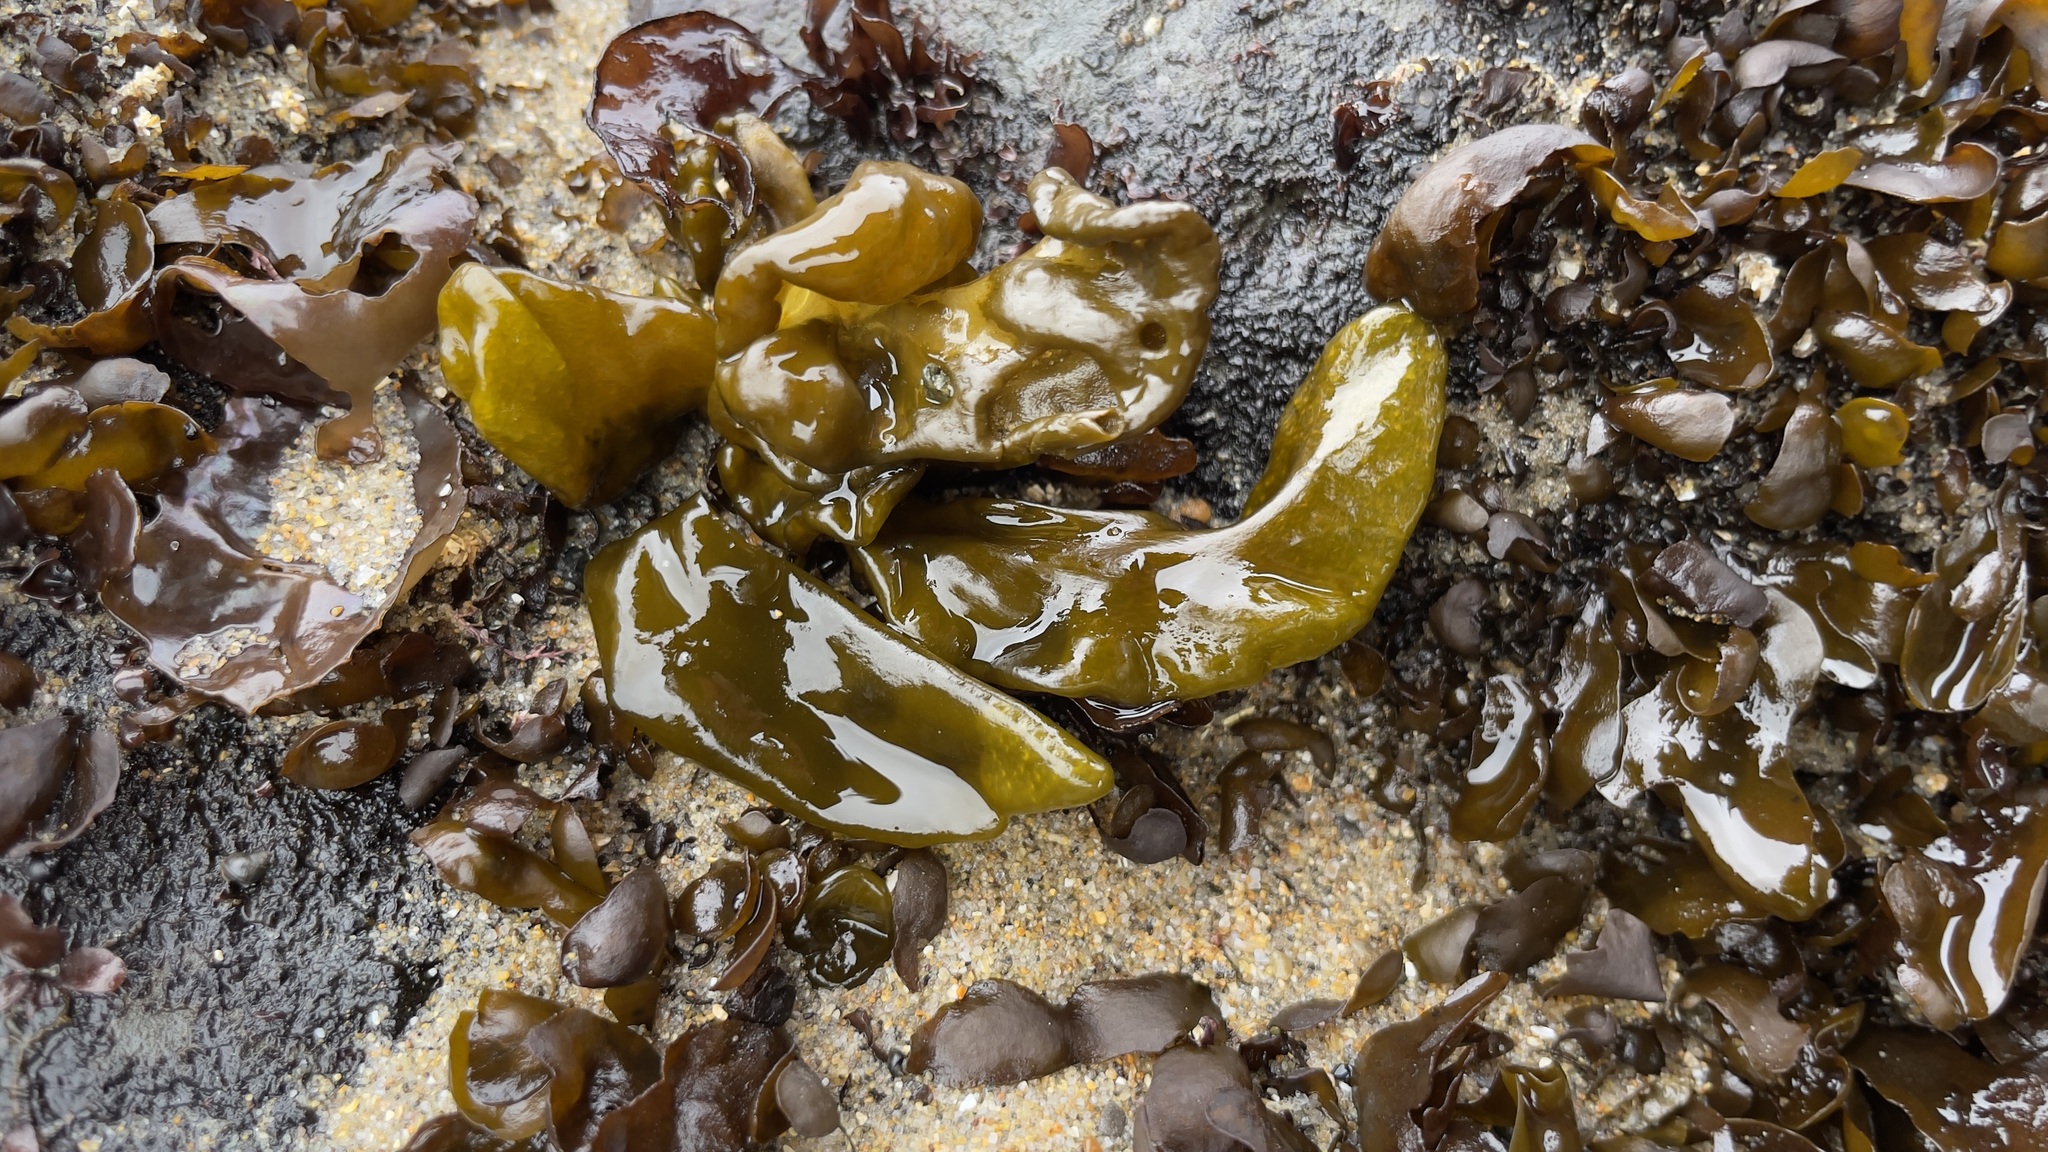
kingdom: Plantae
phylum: Rhodophyta
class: Florideophyceae
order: Palmariales
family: Palmariaceae
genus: Halosaccion
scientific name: Halosaccion glandiforme
